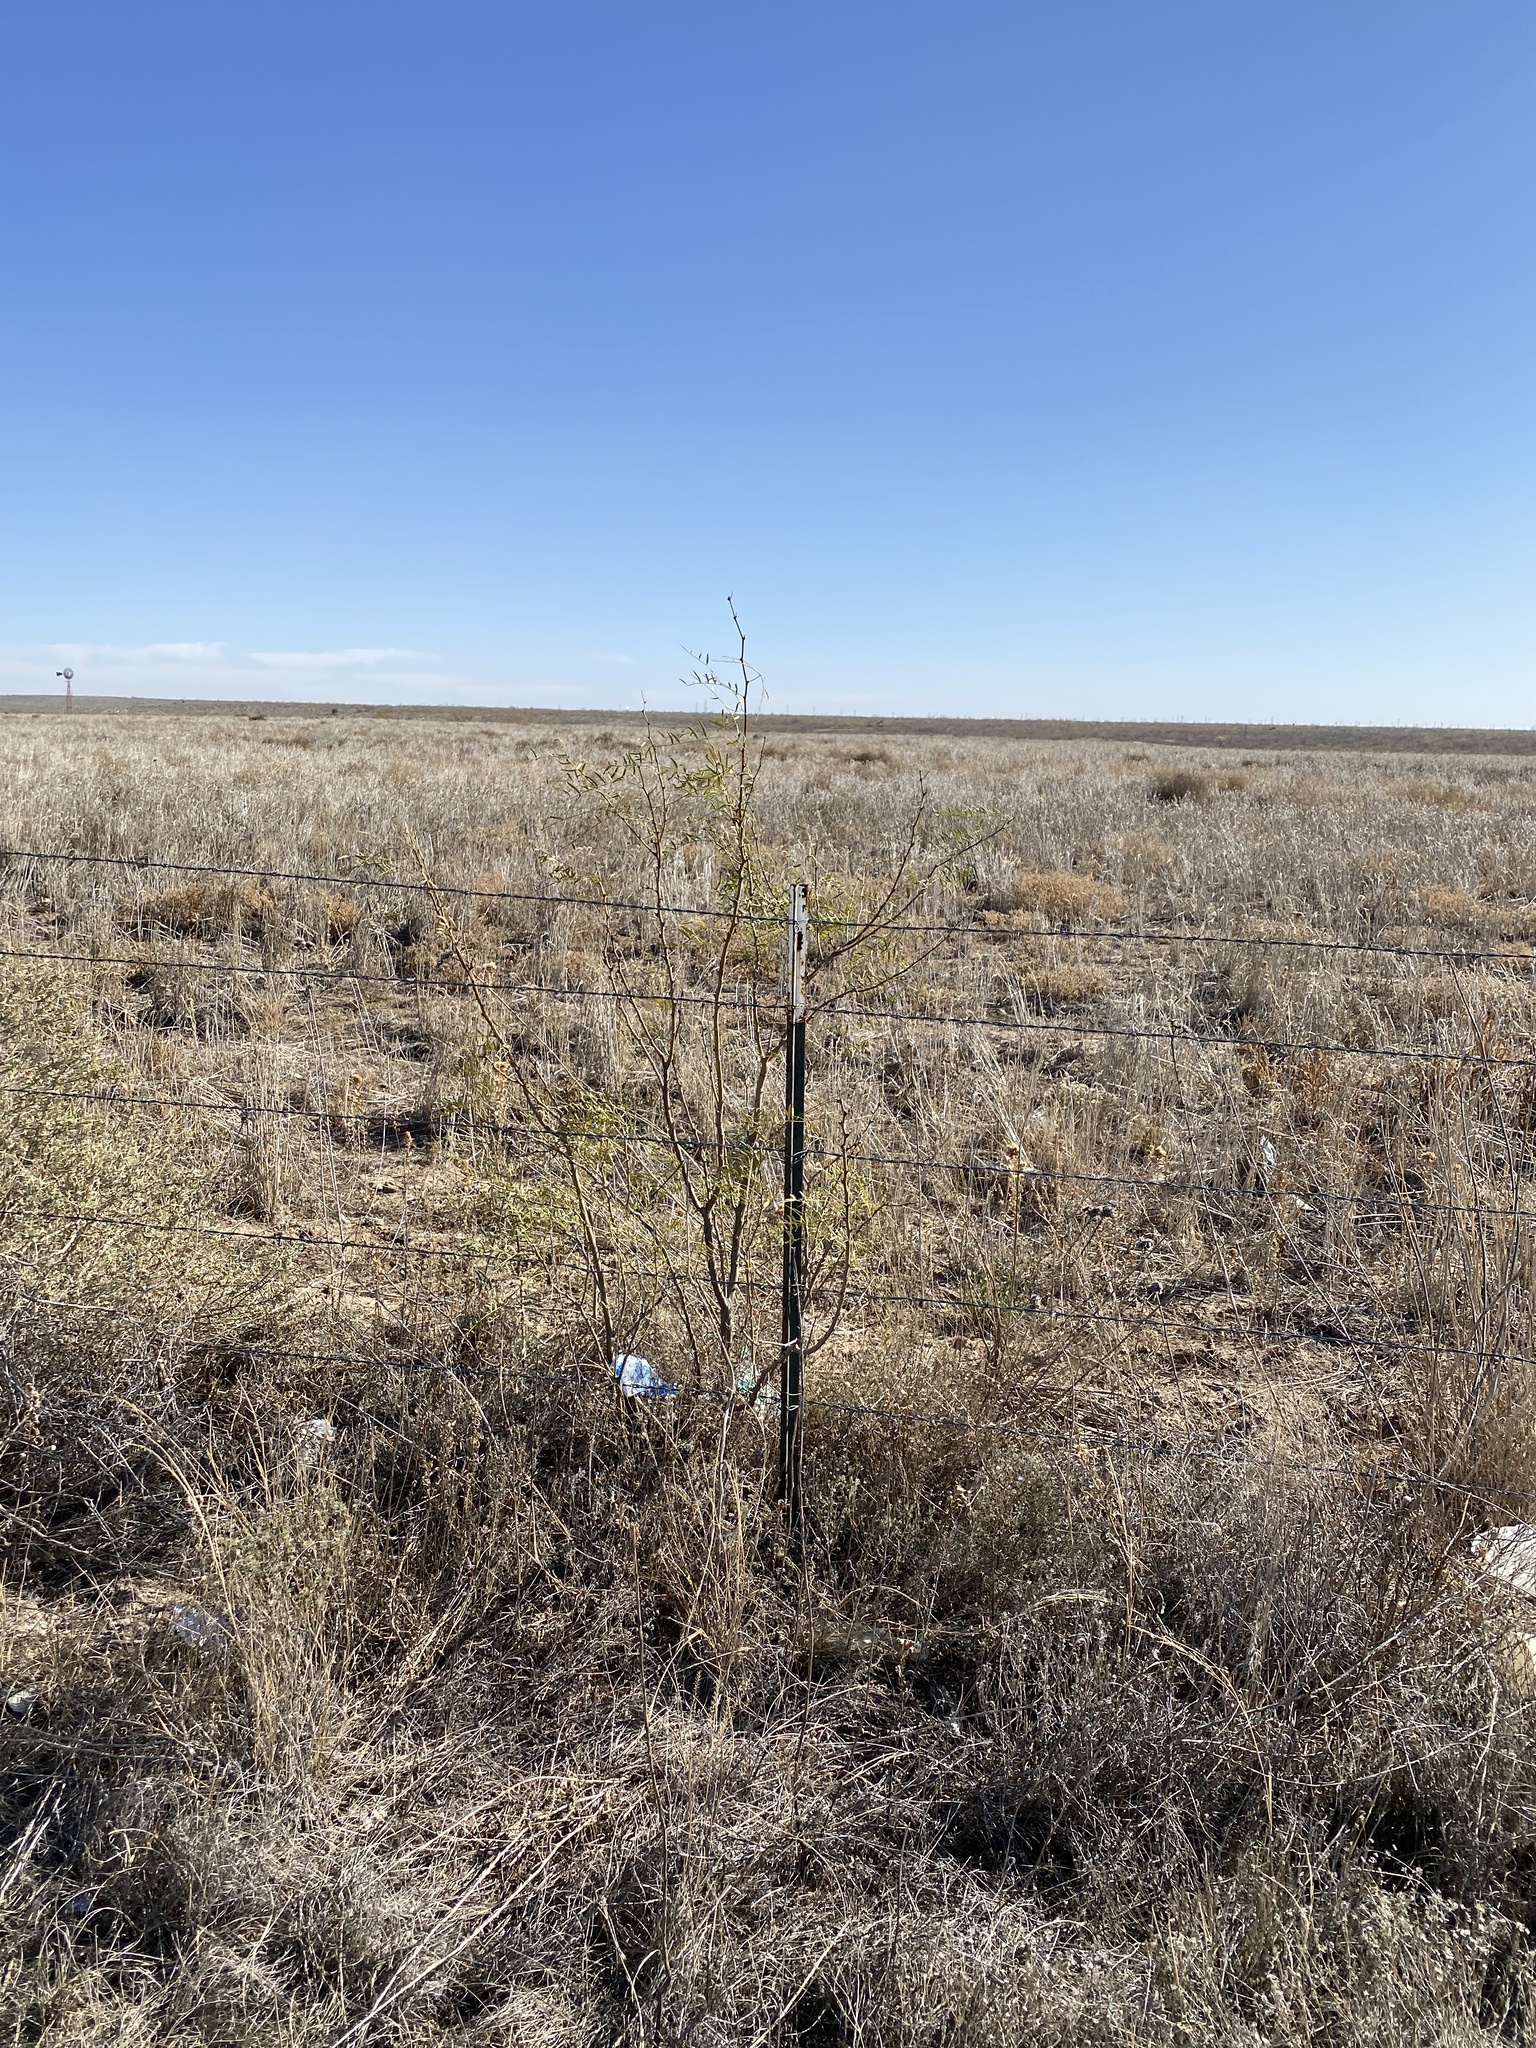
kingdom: Plantae
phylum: Tracheophyta
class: Magnoliopsida
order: Fabales
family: Fabaceae
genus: Prosopis
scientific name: Prosopis glandulosa
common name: Honey mesquite
